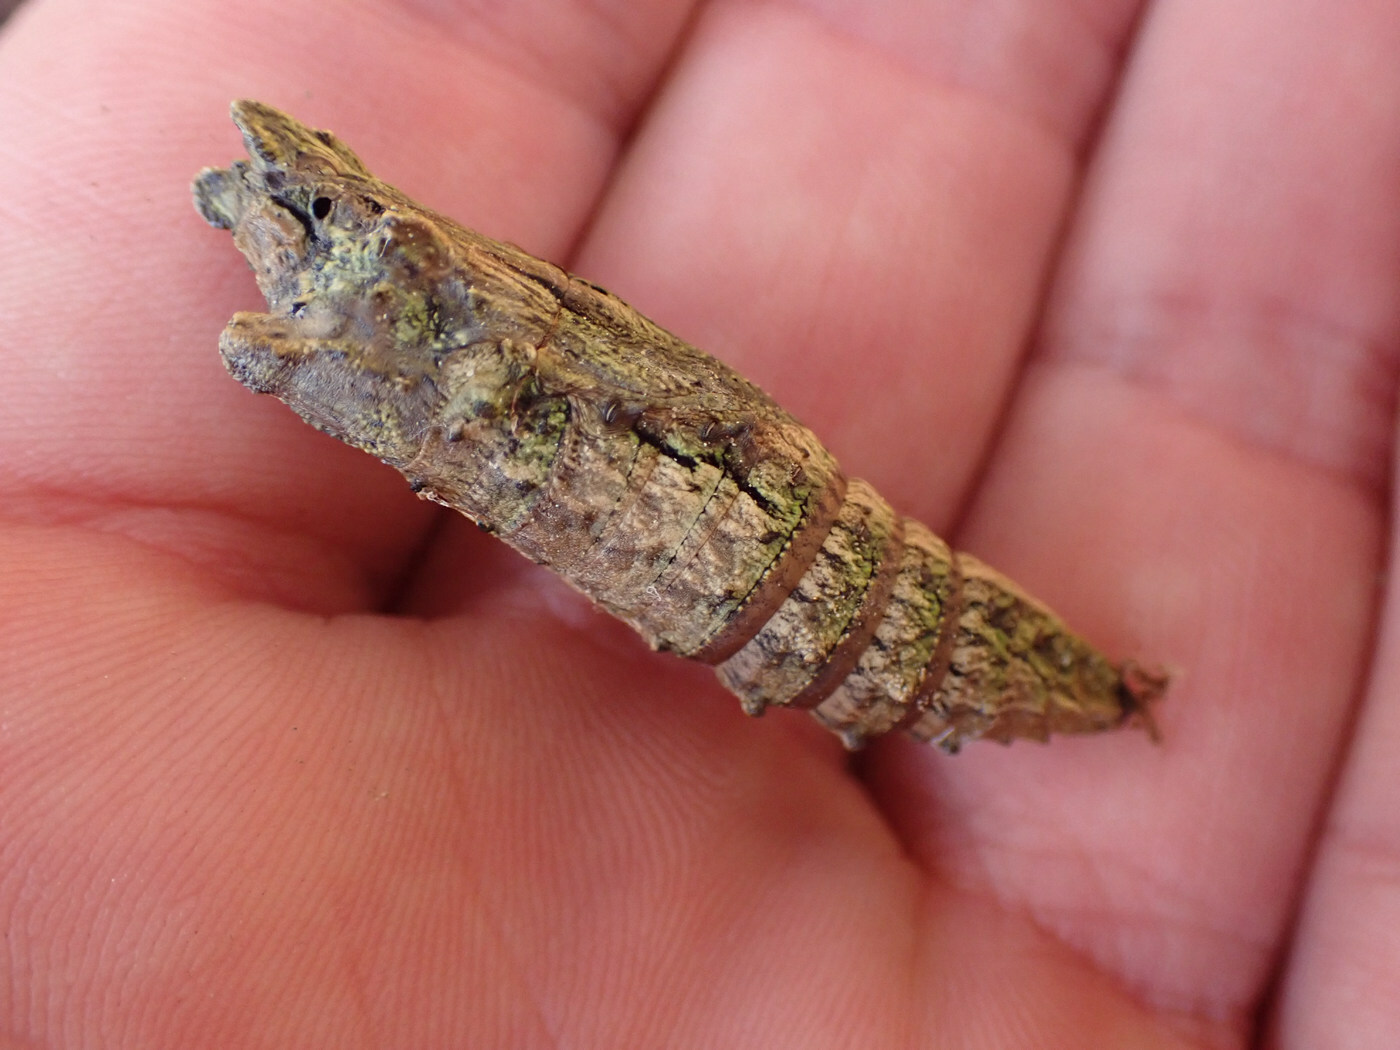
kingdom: Animalia
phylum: Arthropoda
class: Insecta
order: Lepidoptera
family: Papilionidae
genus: Papilio
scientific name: Papilio glaucus
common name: Tiger swallowtail
